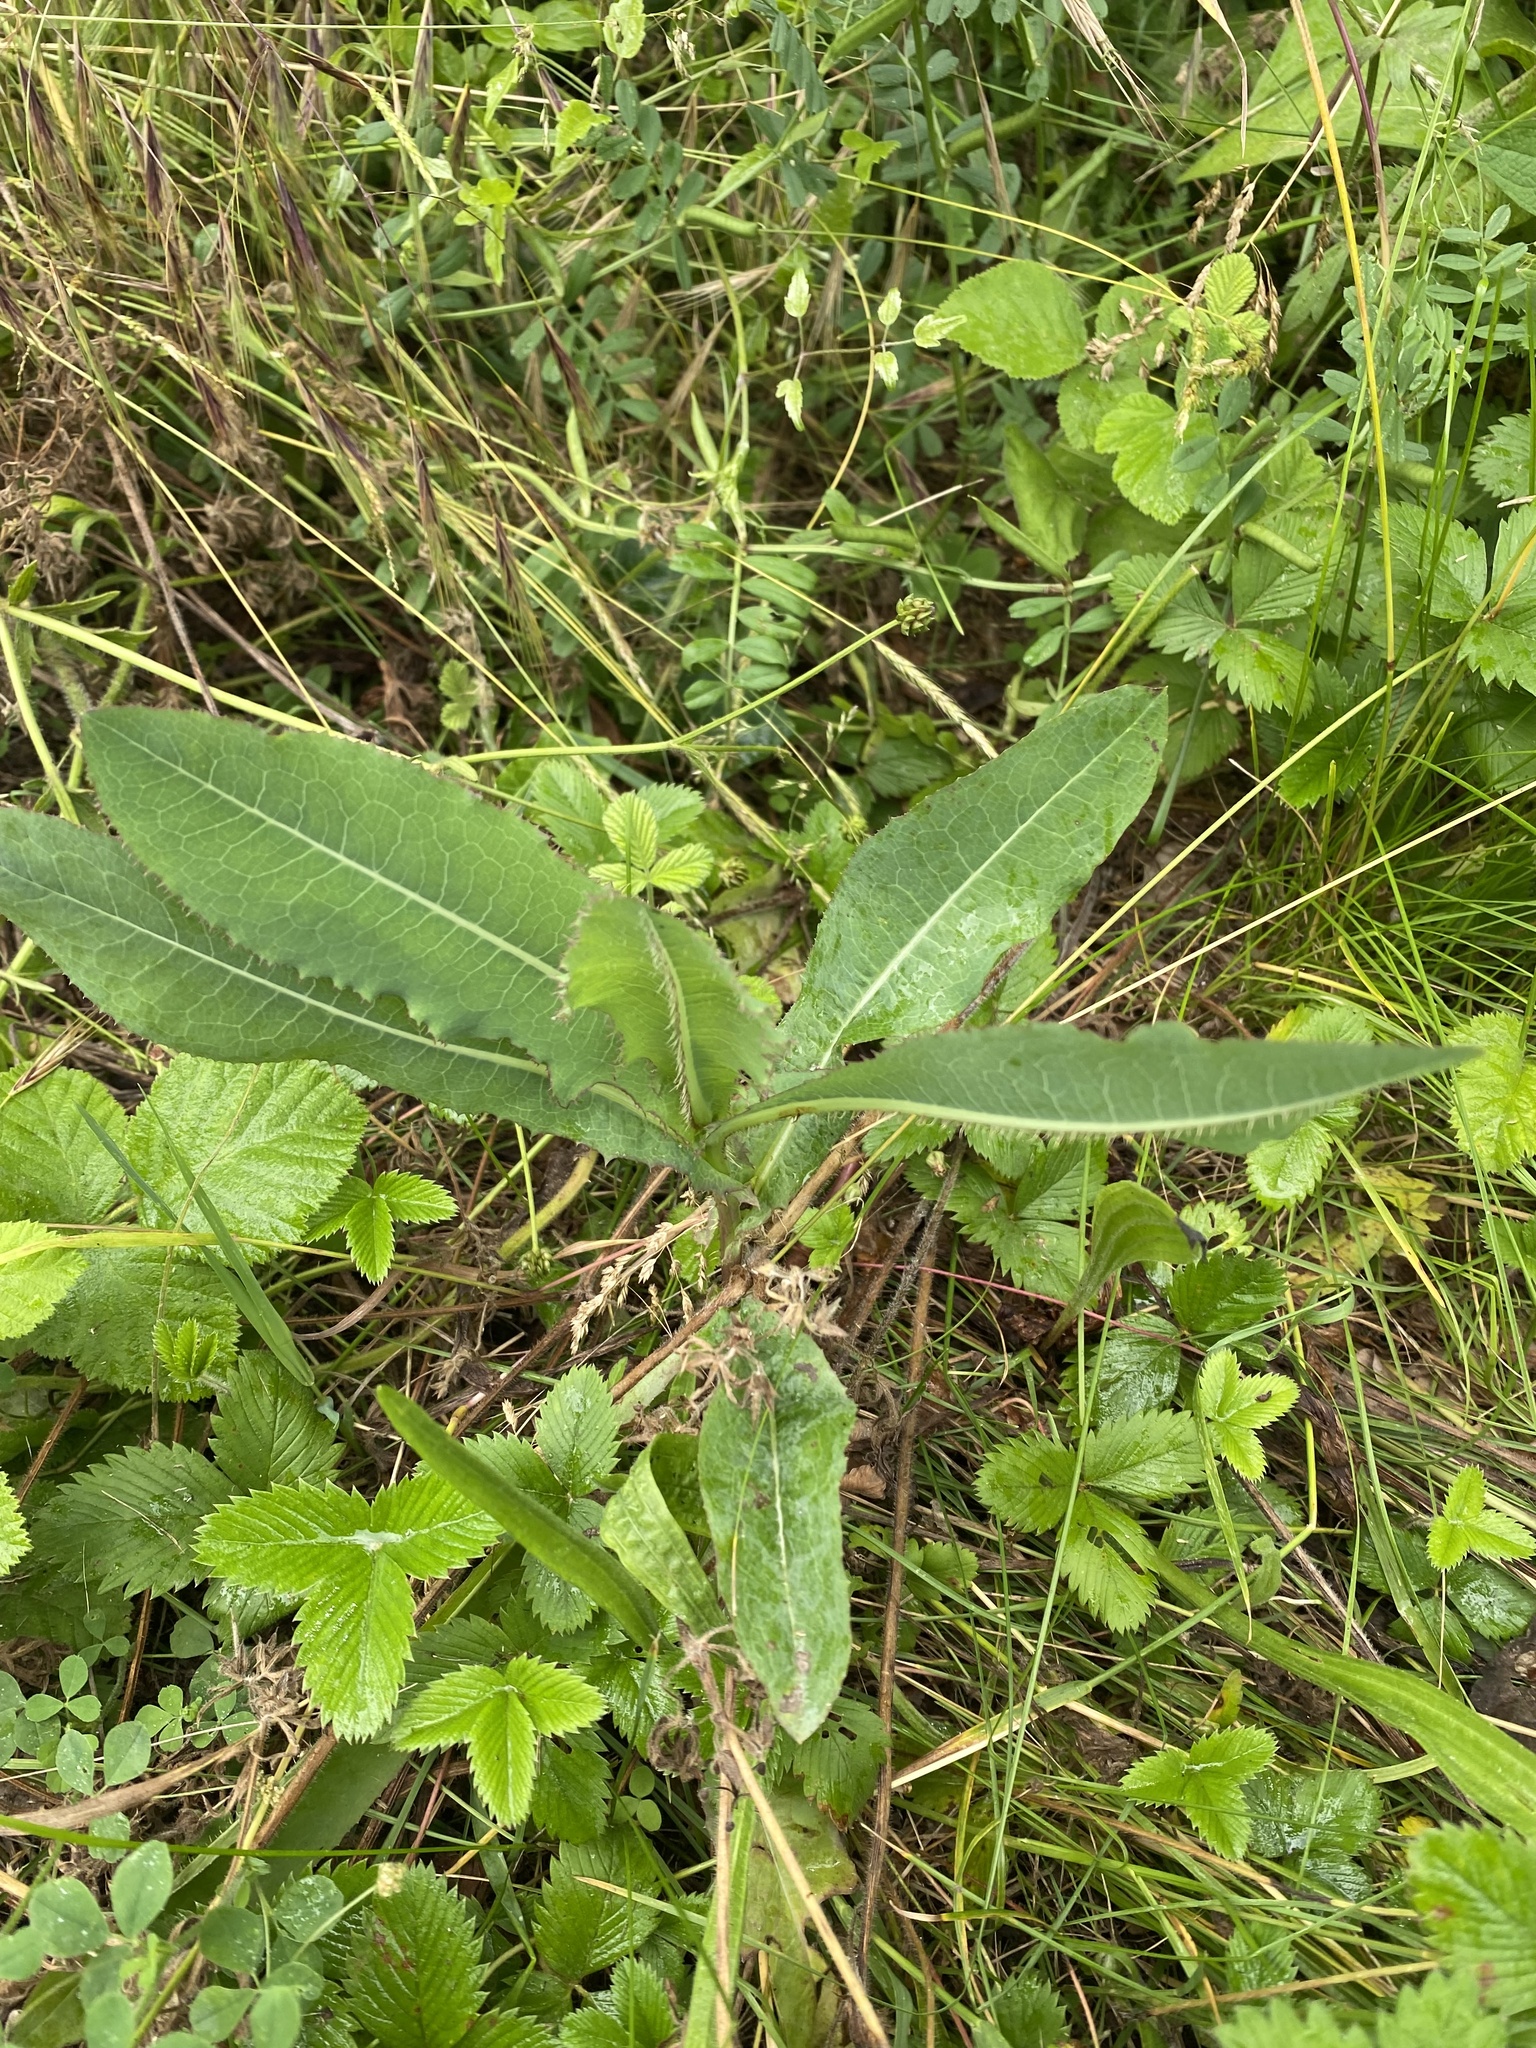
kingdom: Plantae
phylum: Tracheophyta
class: Magnoliopsida
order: Asterales
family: Asteraceae
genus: Lactuca
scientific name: Lactuca serriola
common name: Prickly lettuce
